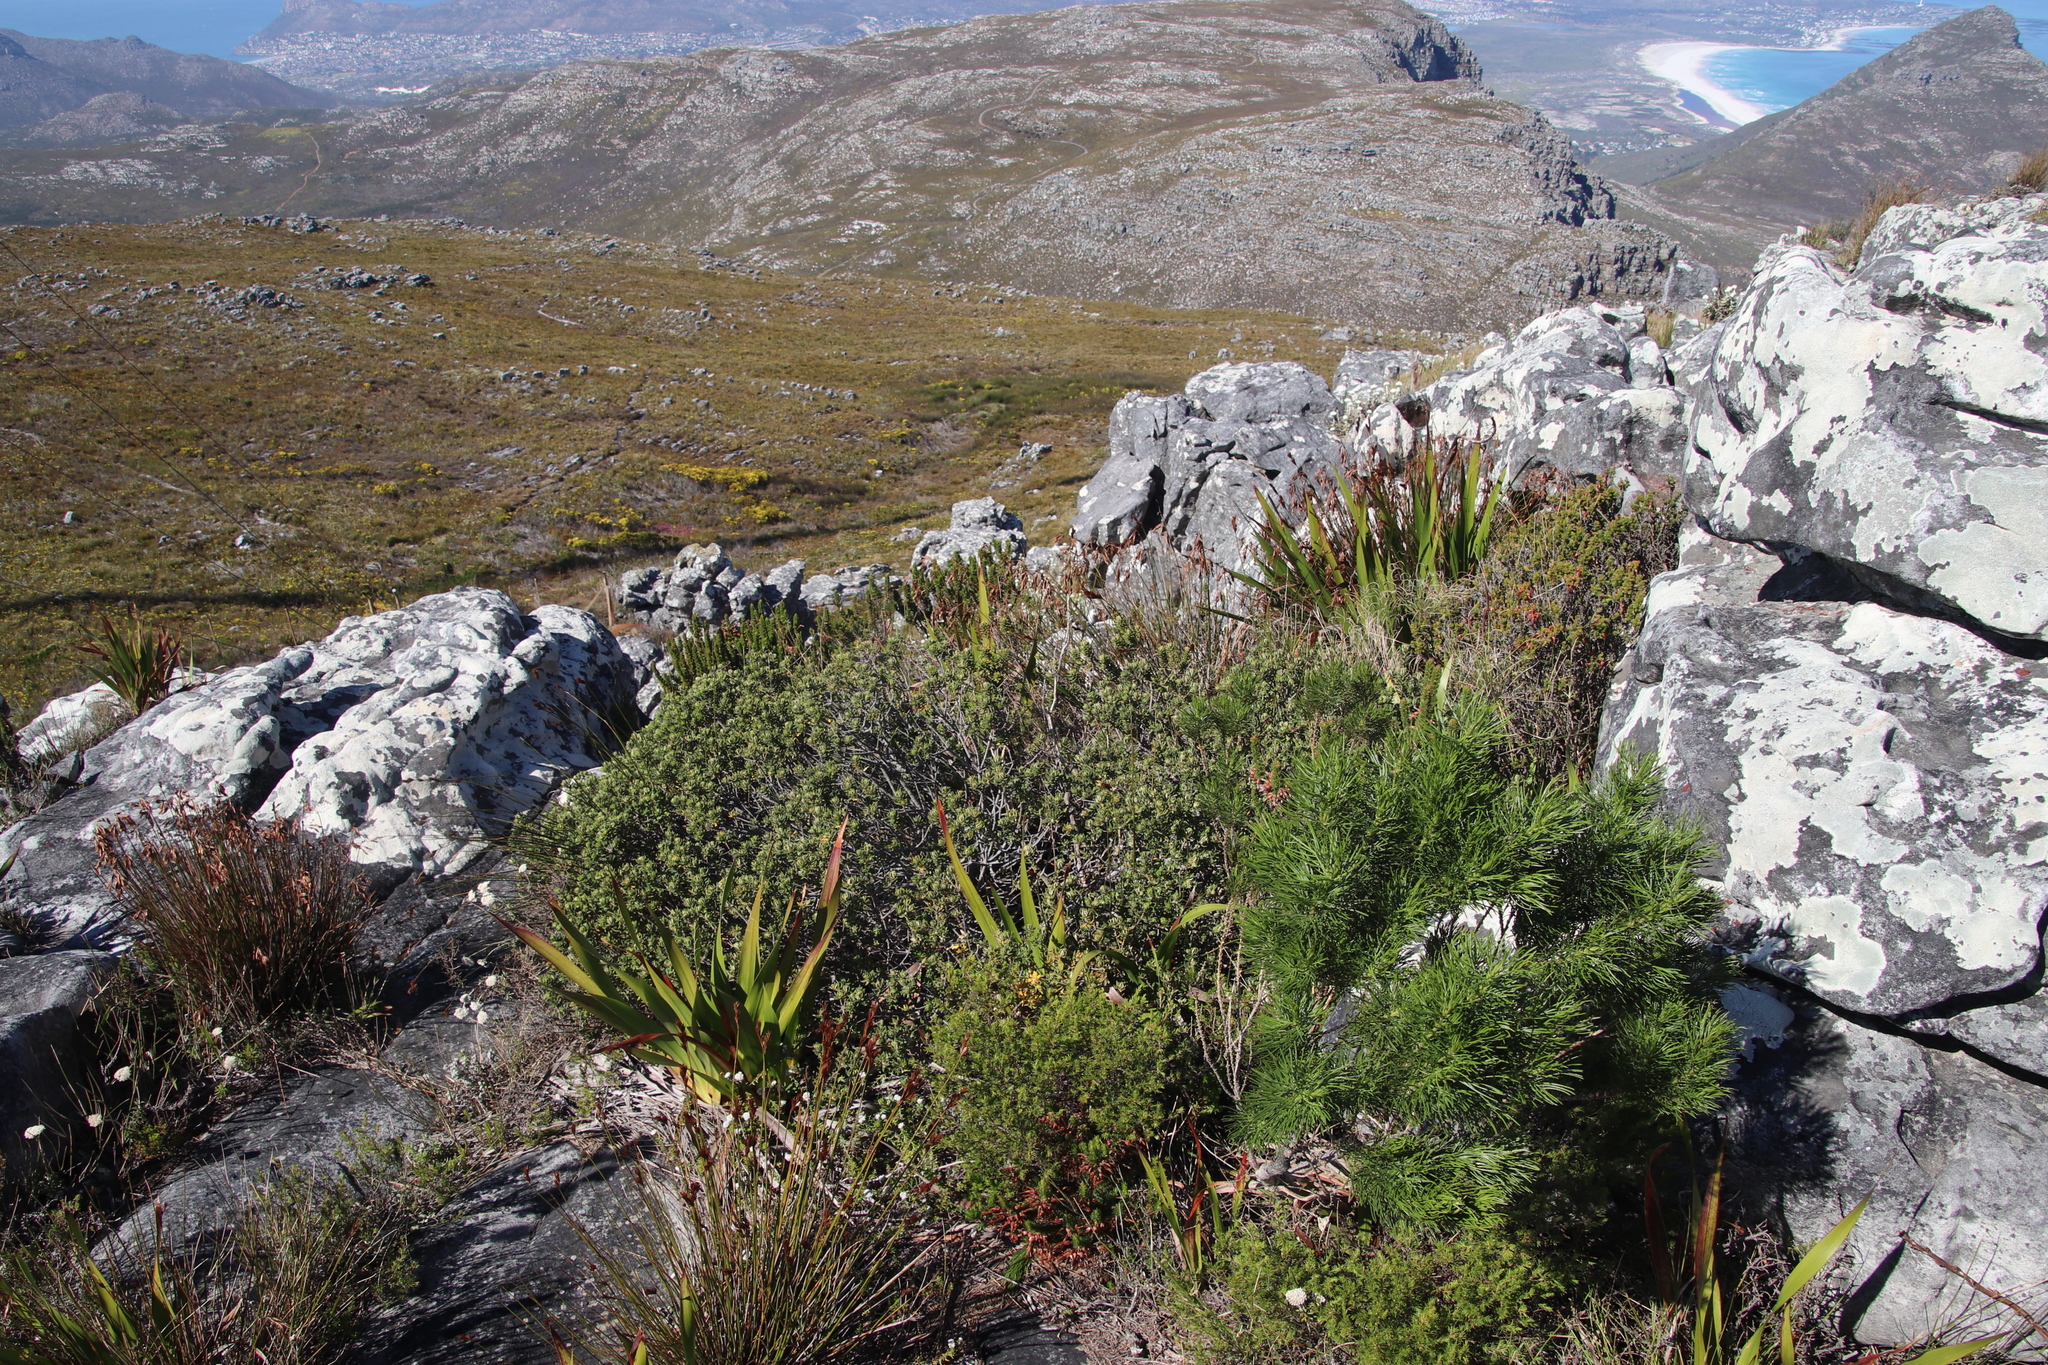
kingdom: Plantae
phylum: Tracheophyta
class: Magnoliopsida
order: Fabales
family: Fabaceae
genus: Psoralea
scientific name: Psoralea pinnata
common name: African scurfpea
